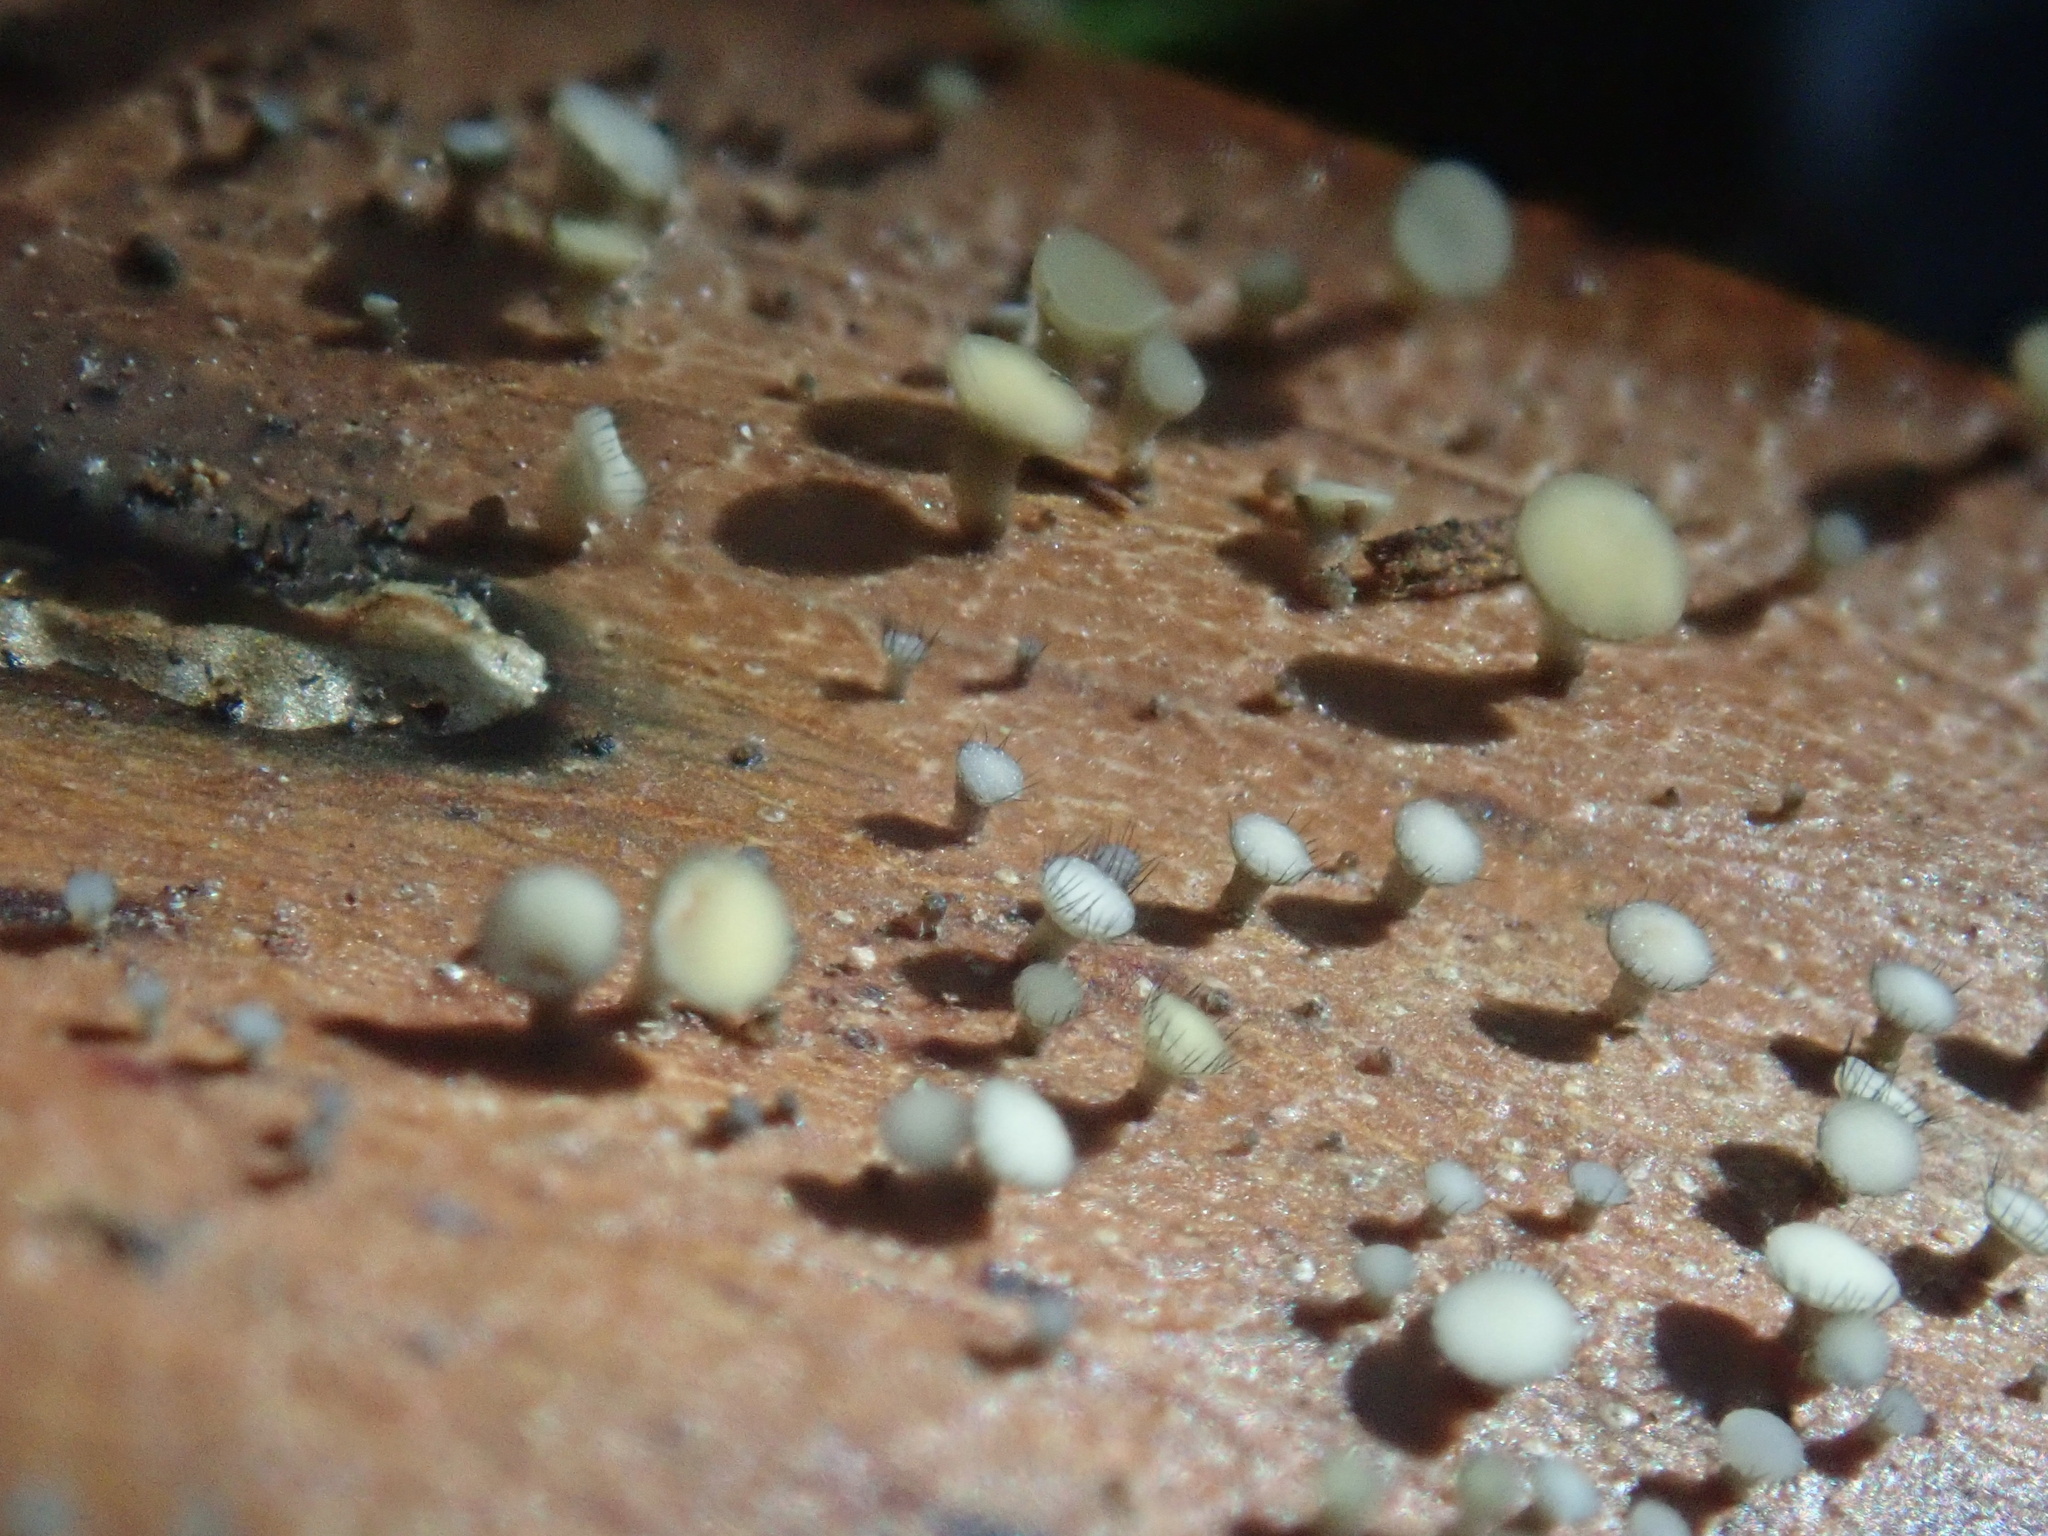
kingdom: Fungi
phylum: Ascomycota
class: Leotiomycetes
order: Helotiales
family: Helotiaceae
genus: Hymenotorrendiella
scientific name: Hymenotorrendiella eucalypti
